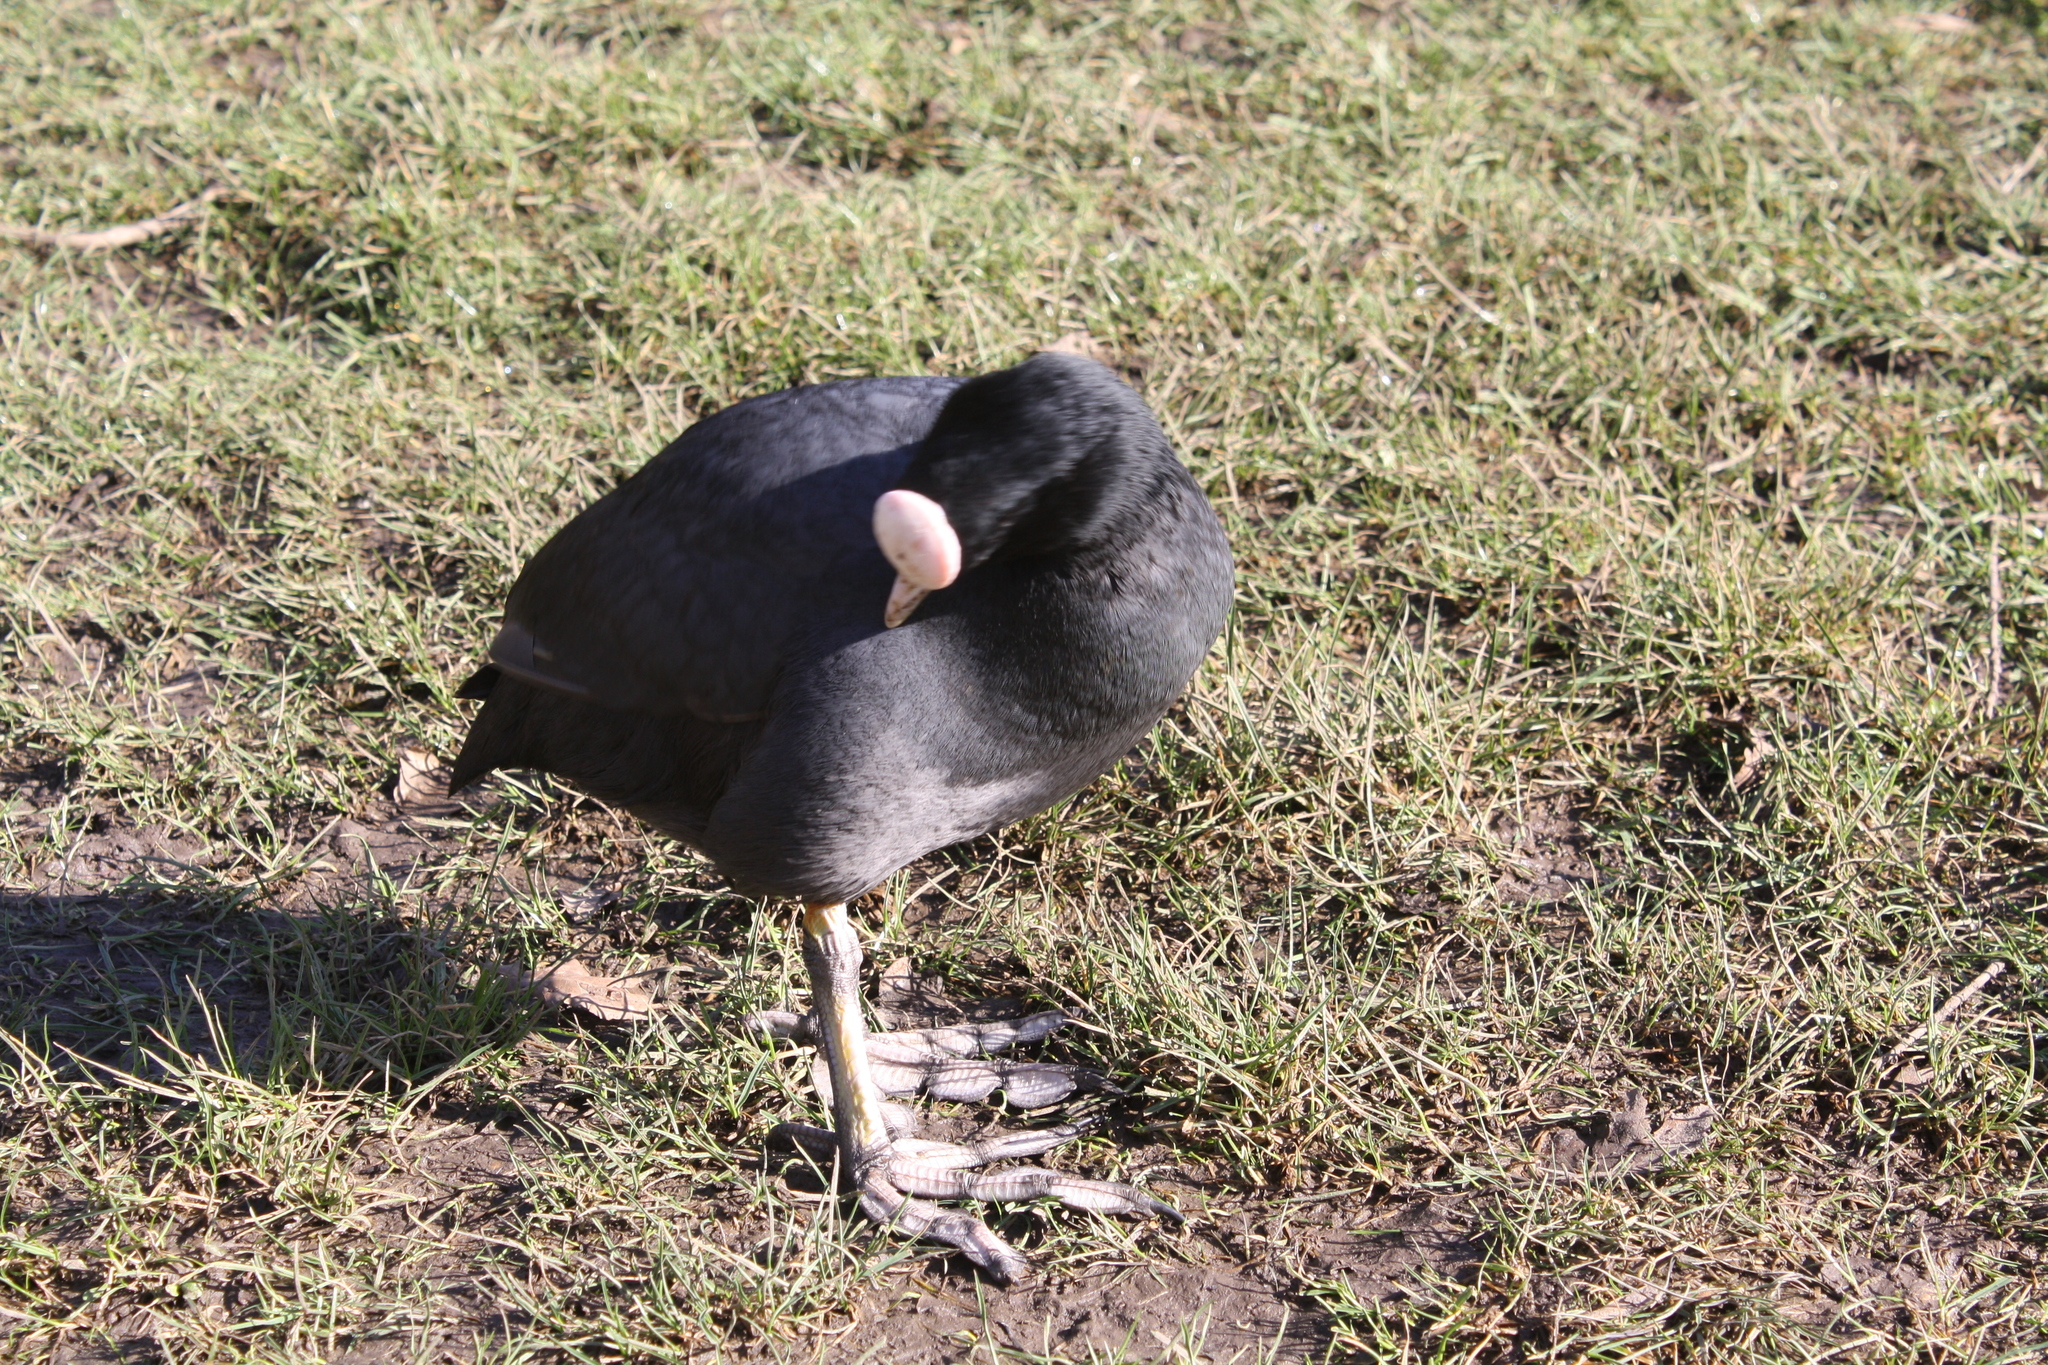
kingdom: Animalia
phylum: Chordata
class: Aves
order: Gruiformes
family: Rallidae
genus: Fulica
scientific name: Fulica atra
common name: Eurasian coot
